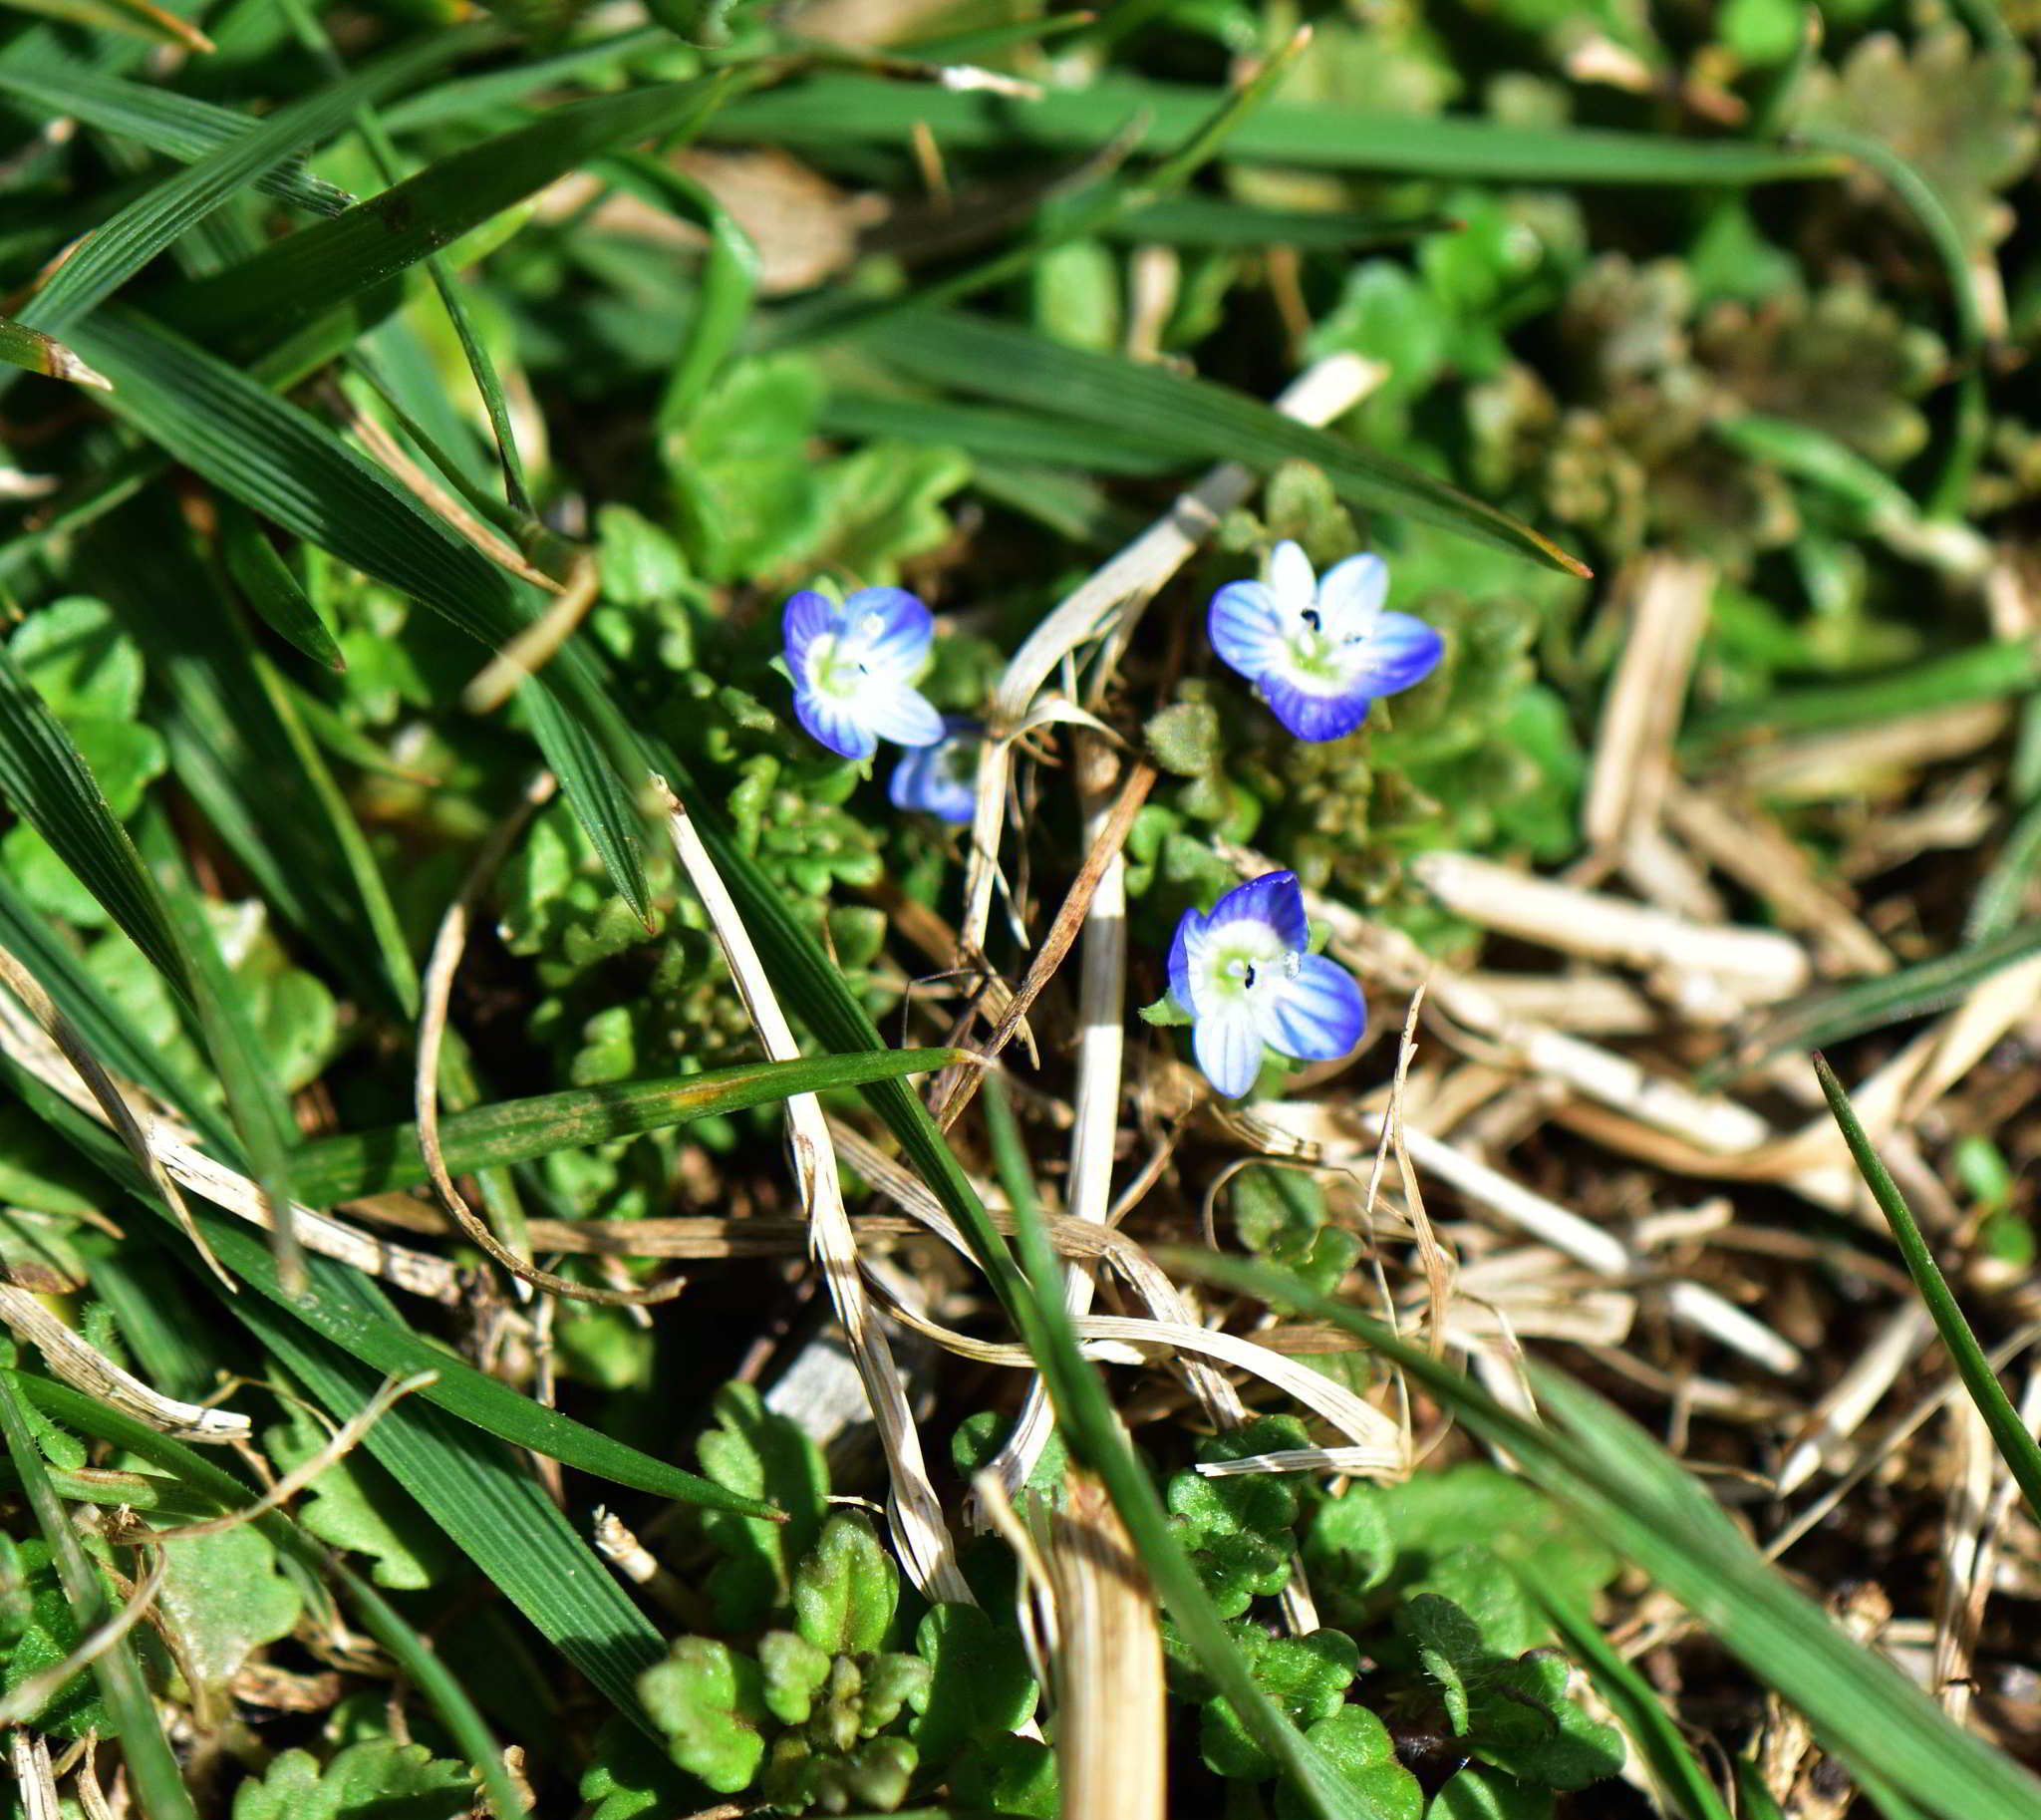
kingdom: Plantae
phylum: Tracheophyta
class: Magnoliopsida
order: Lamiales
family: Plantaginaceae
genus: Veronica
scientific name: Veronica persica
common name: Common field-speedwell
